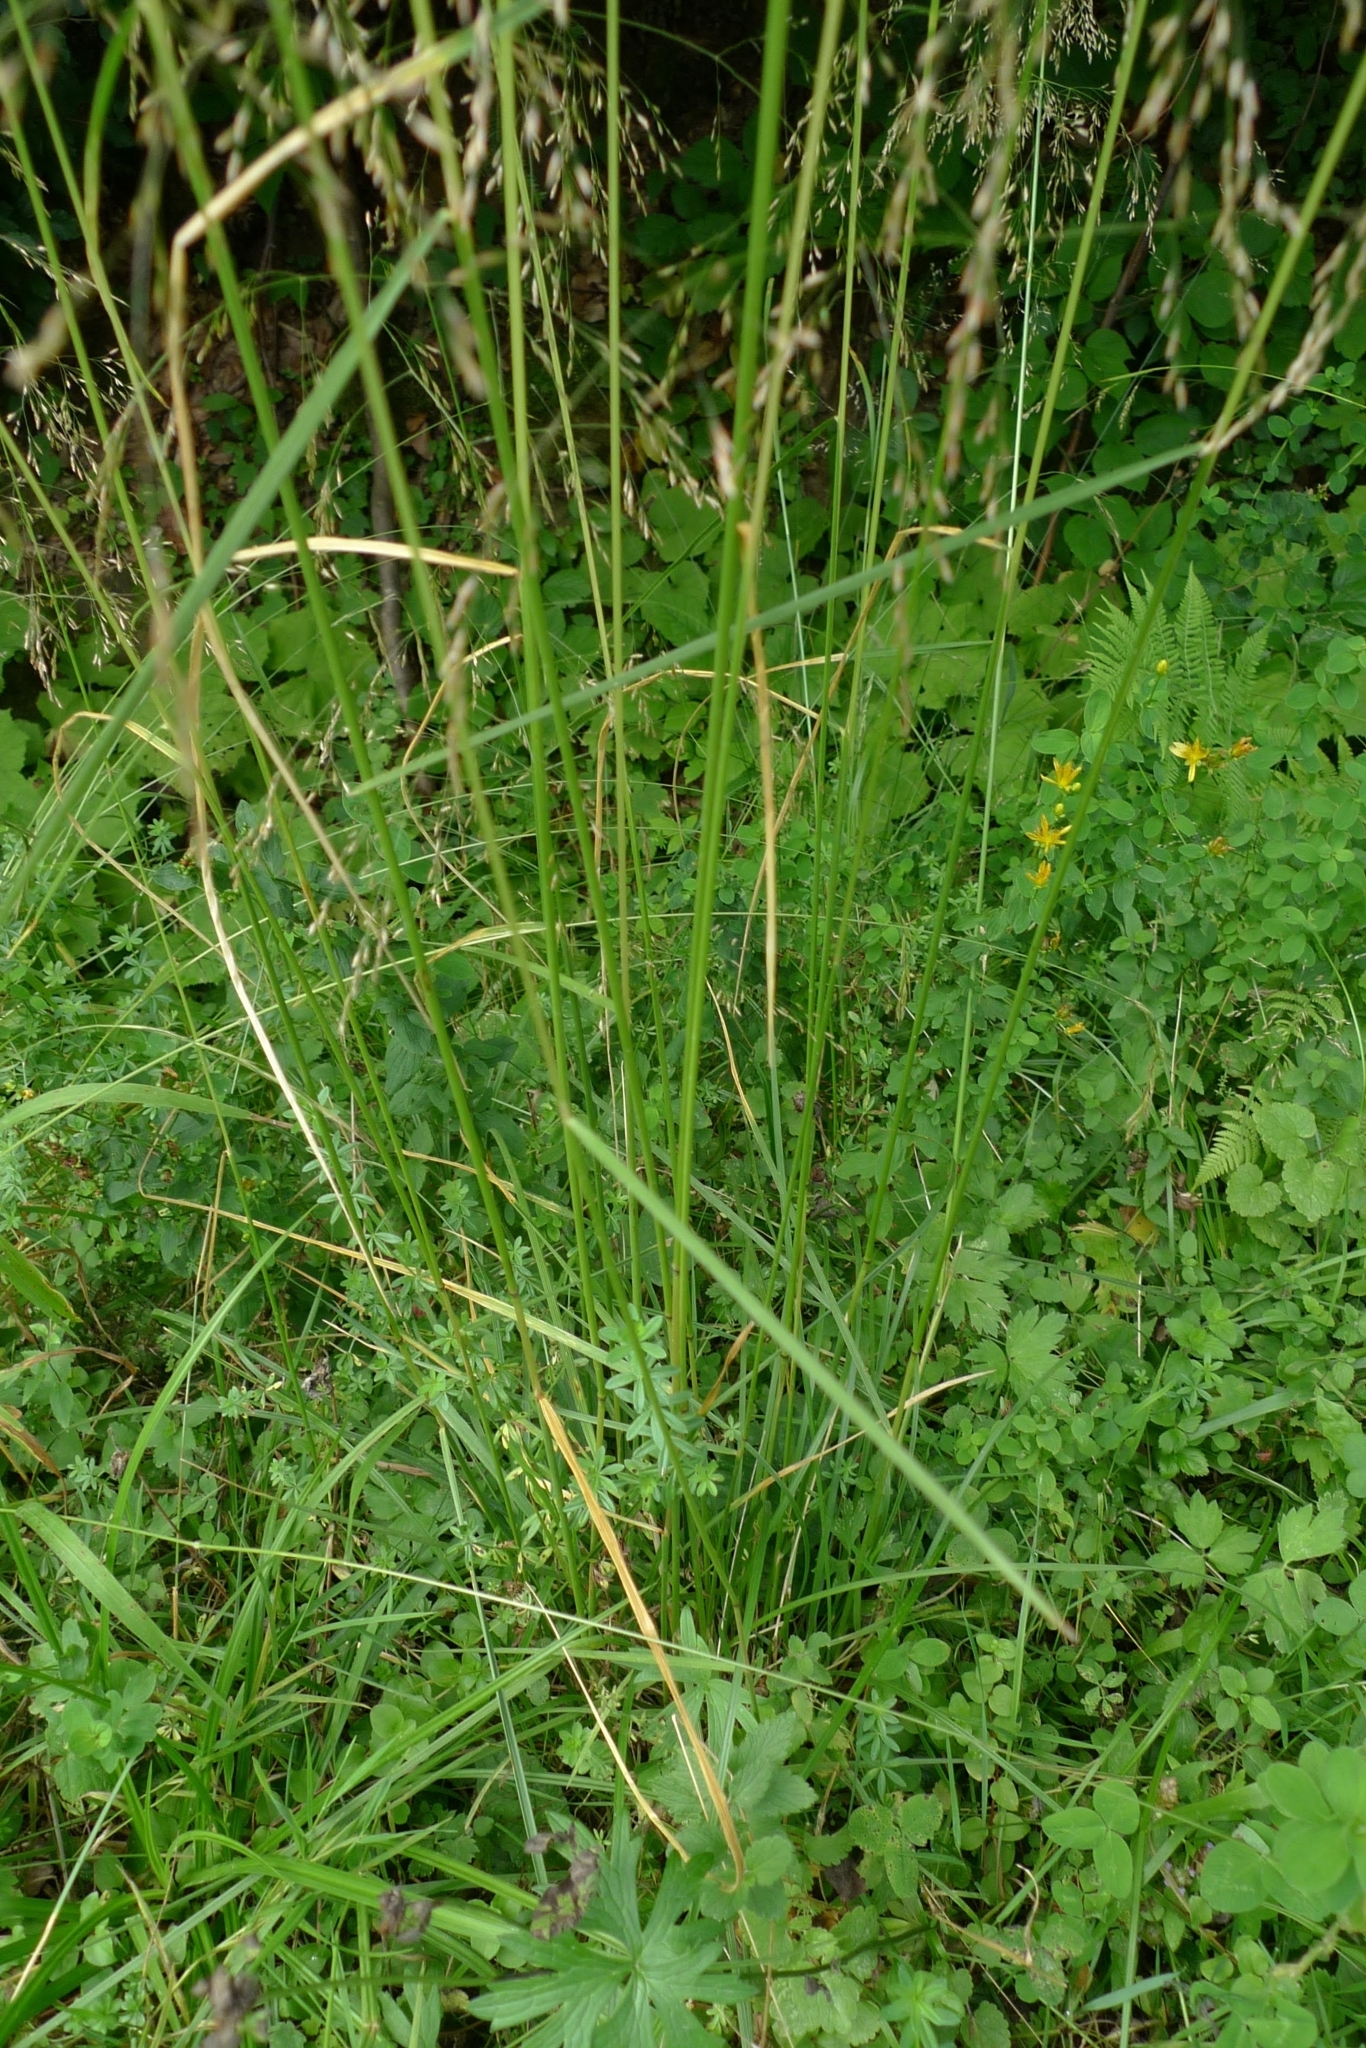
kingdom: Plantae
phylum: Tracheophyta
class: Liliopsida
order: Poales
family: Poaceae
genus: Deschampsia
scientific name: Deschampsia cespitosa
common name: Tufted hair-grass
